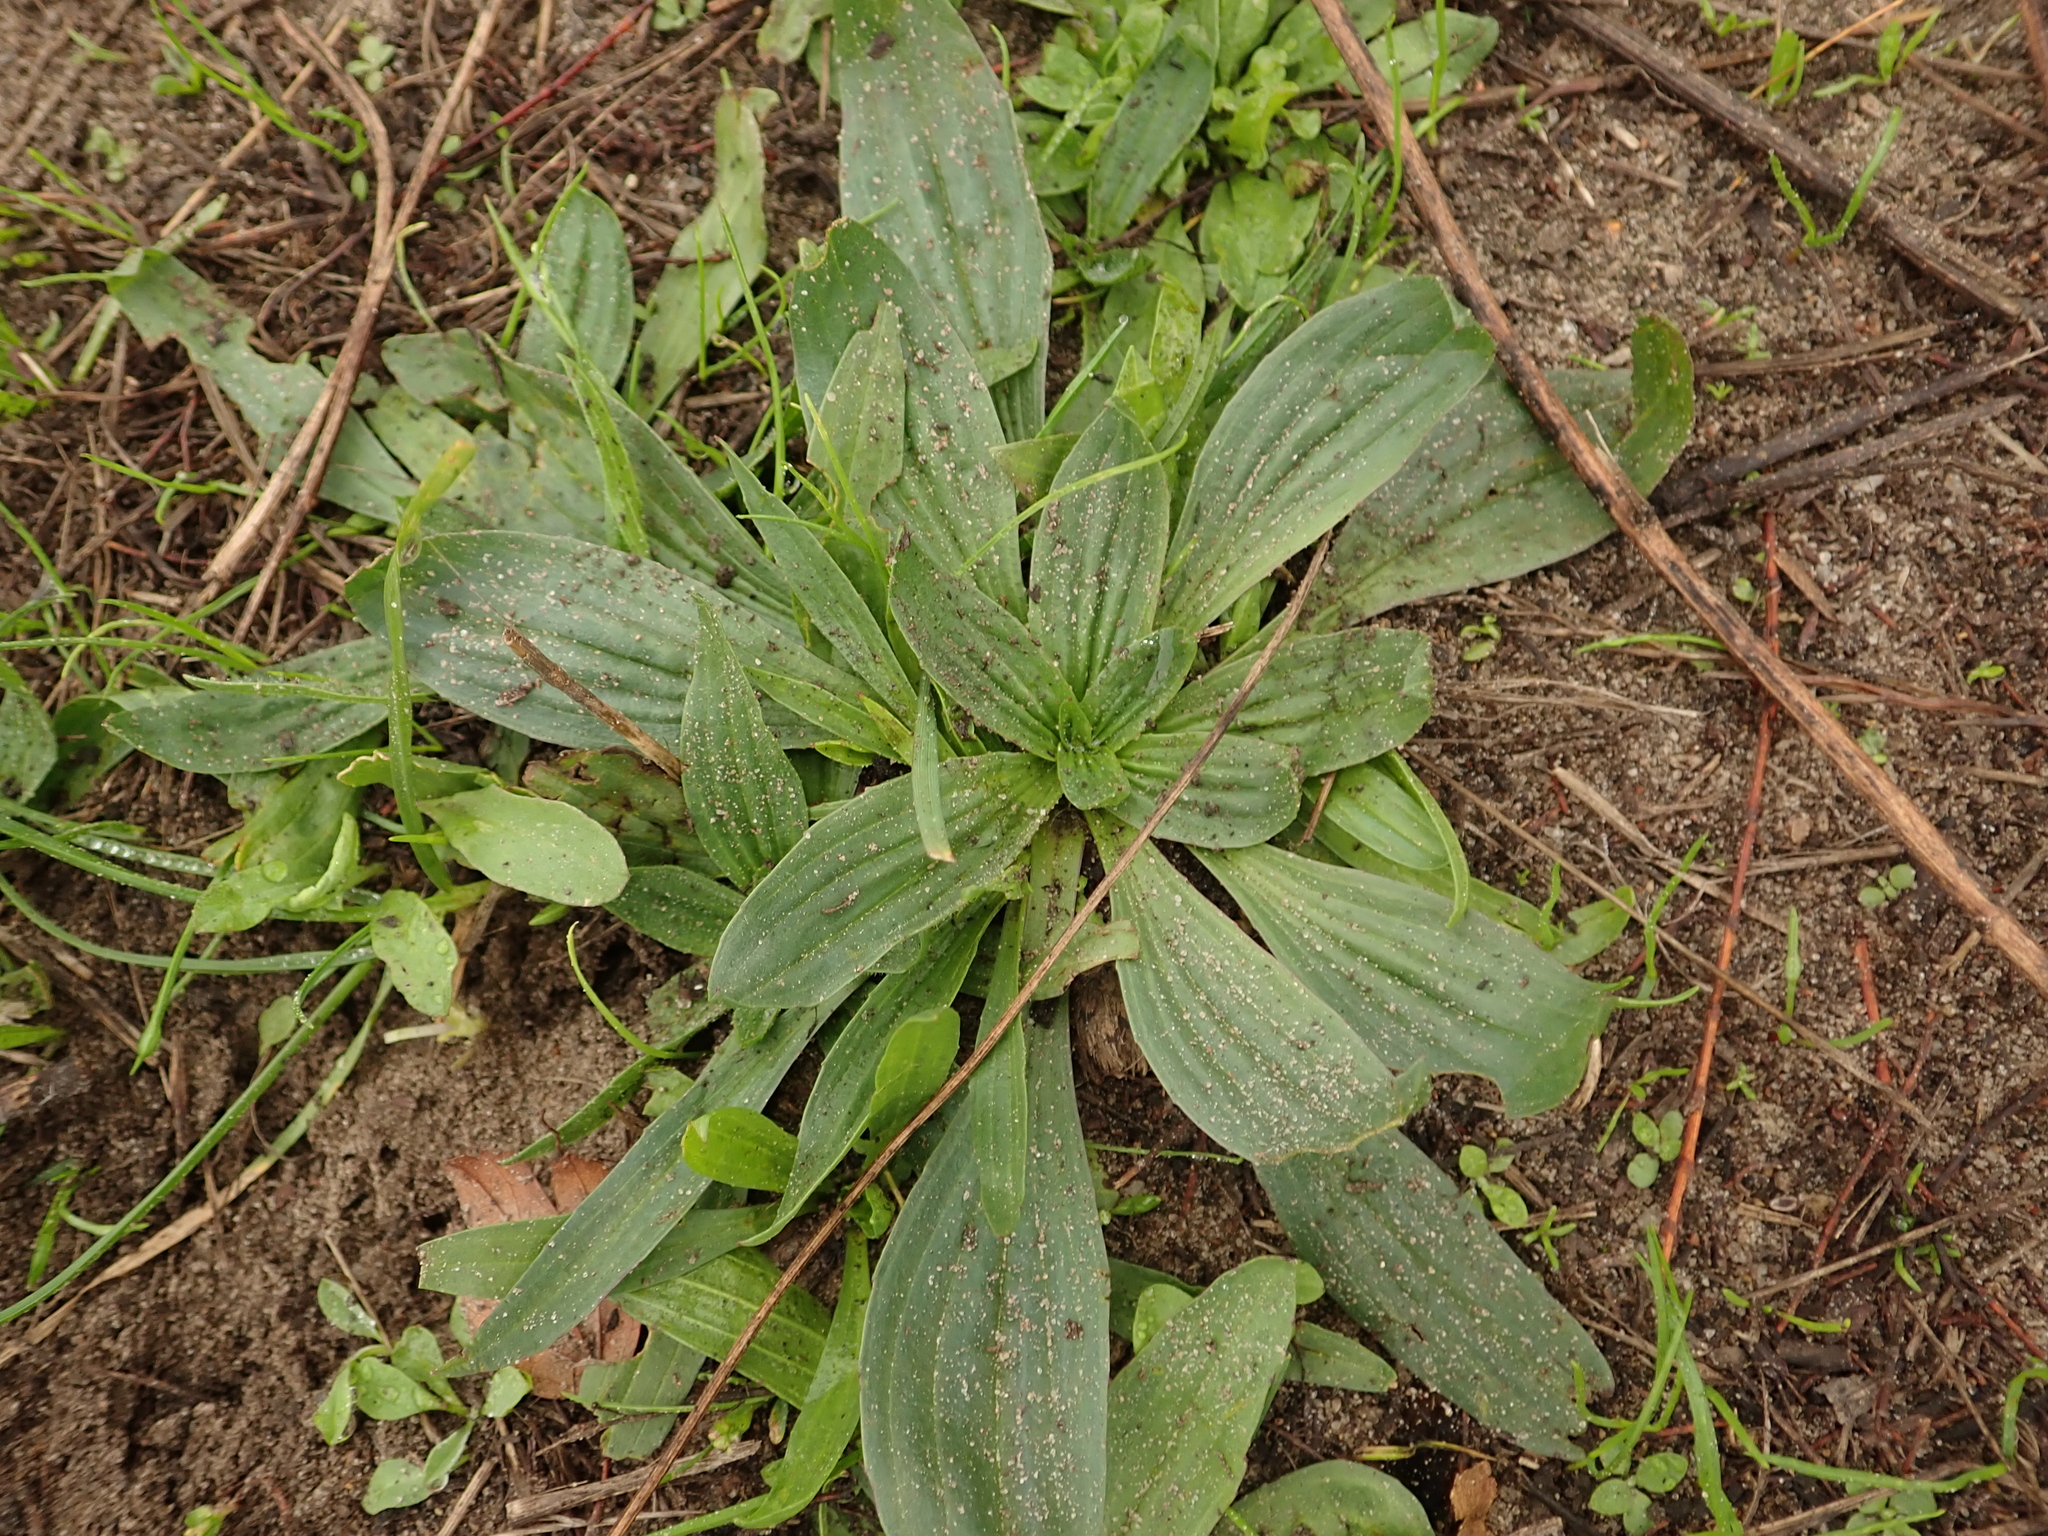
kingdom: Plantae
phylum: Tracheophyta
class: Magnoliopsida
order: Lamiales
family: Plantaginaceae
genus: Plantago
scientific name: Plantago lanceolata
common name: Ribwort plantain
